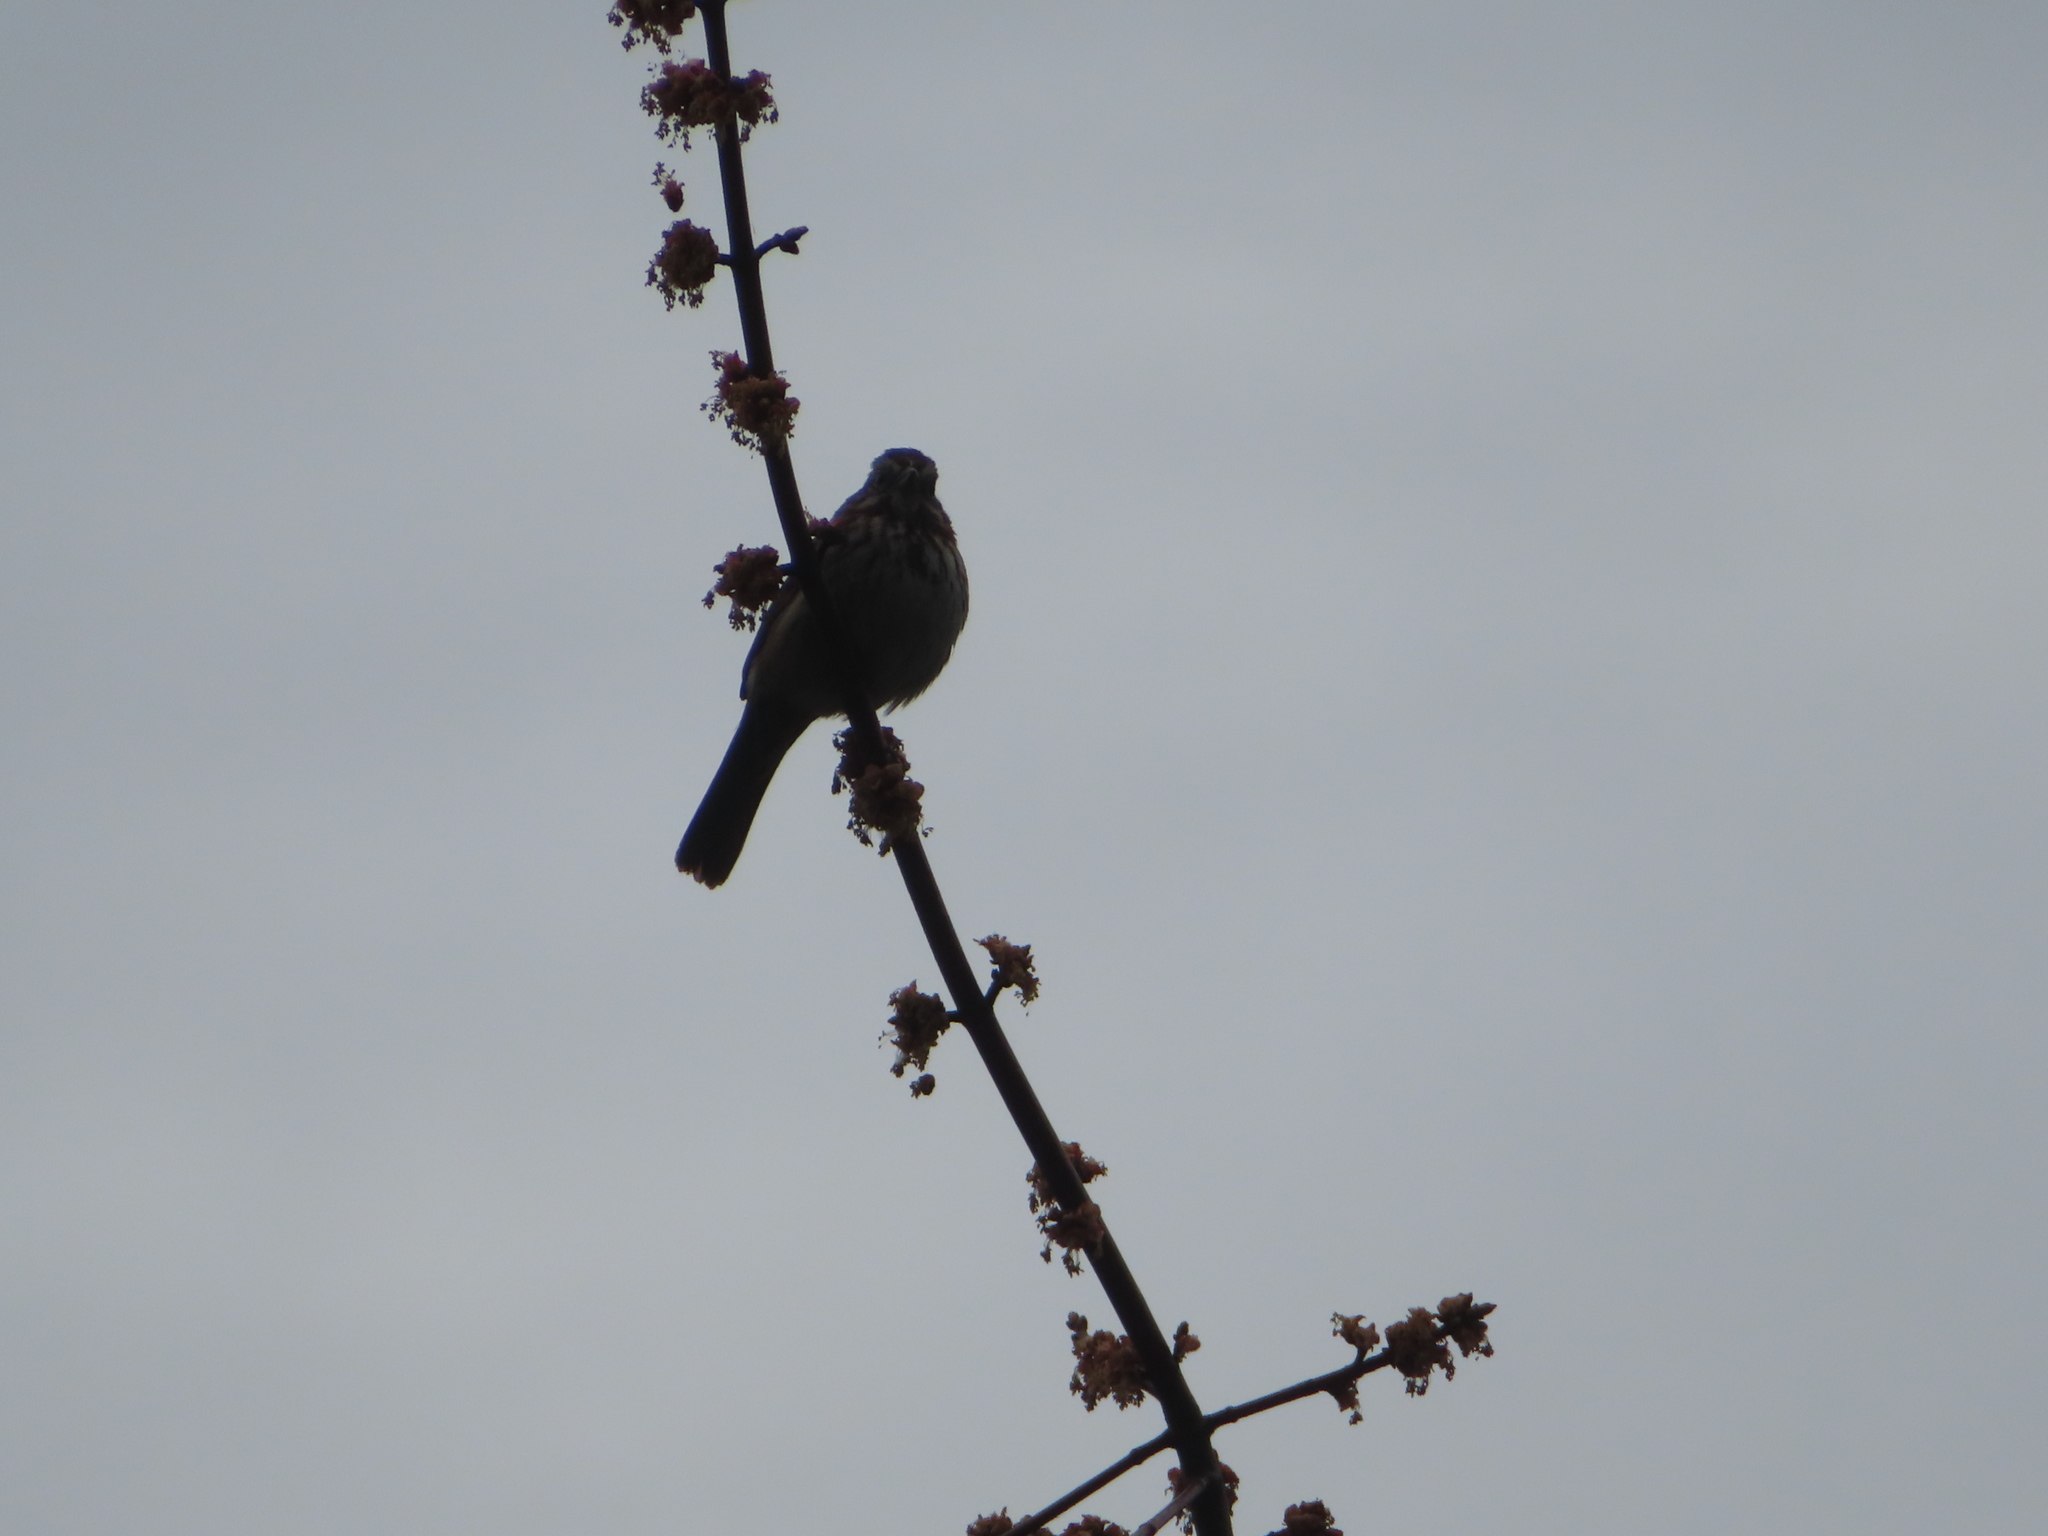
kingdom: Animalia
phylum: Chordata
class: Aves
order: Passeriformes
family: Passerellidae
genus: Melospiza
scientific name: Melospiza melodia
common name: Song sparrow
